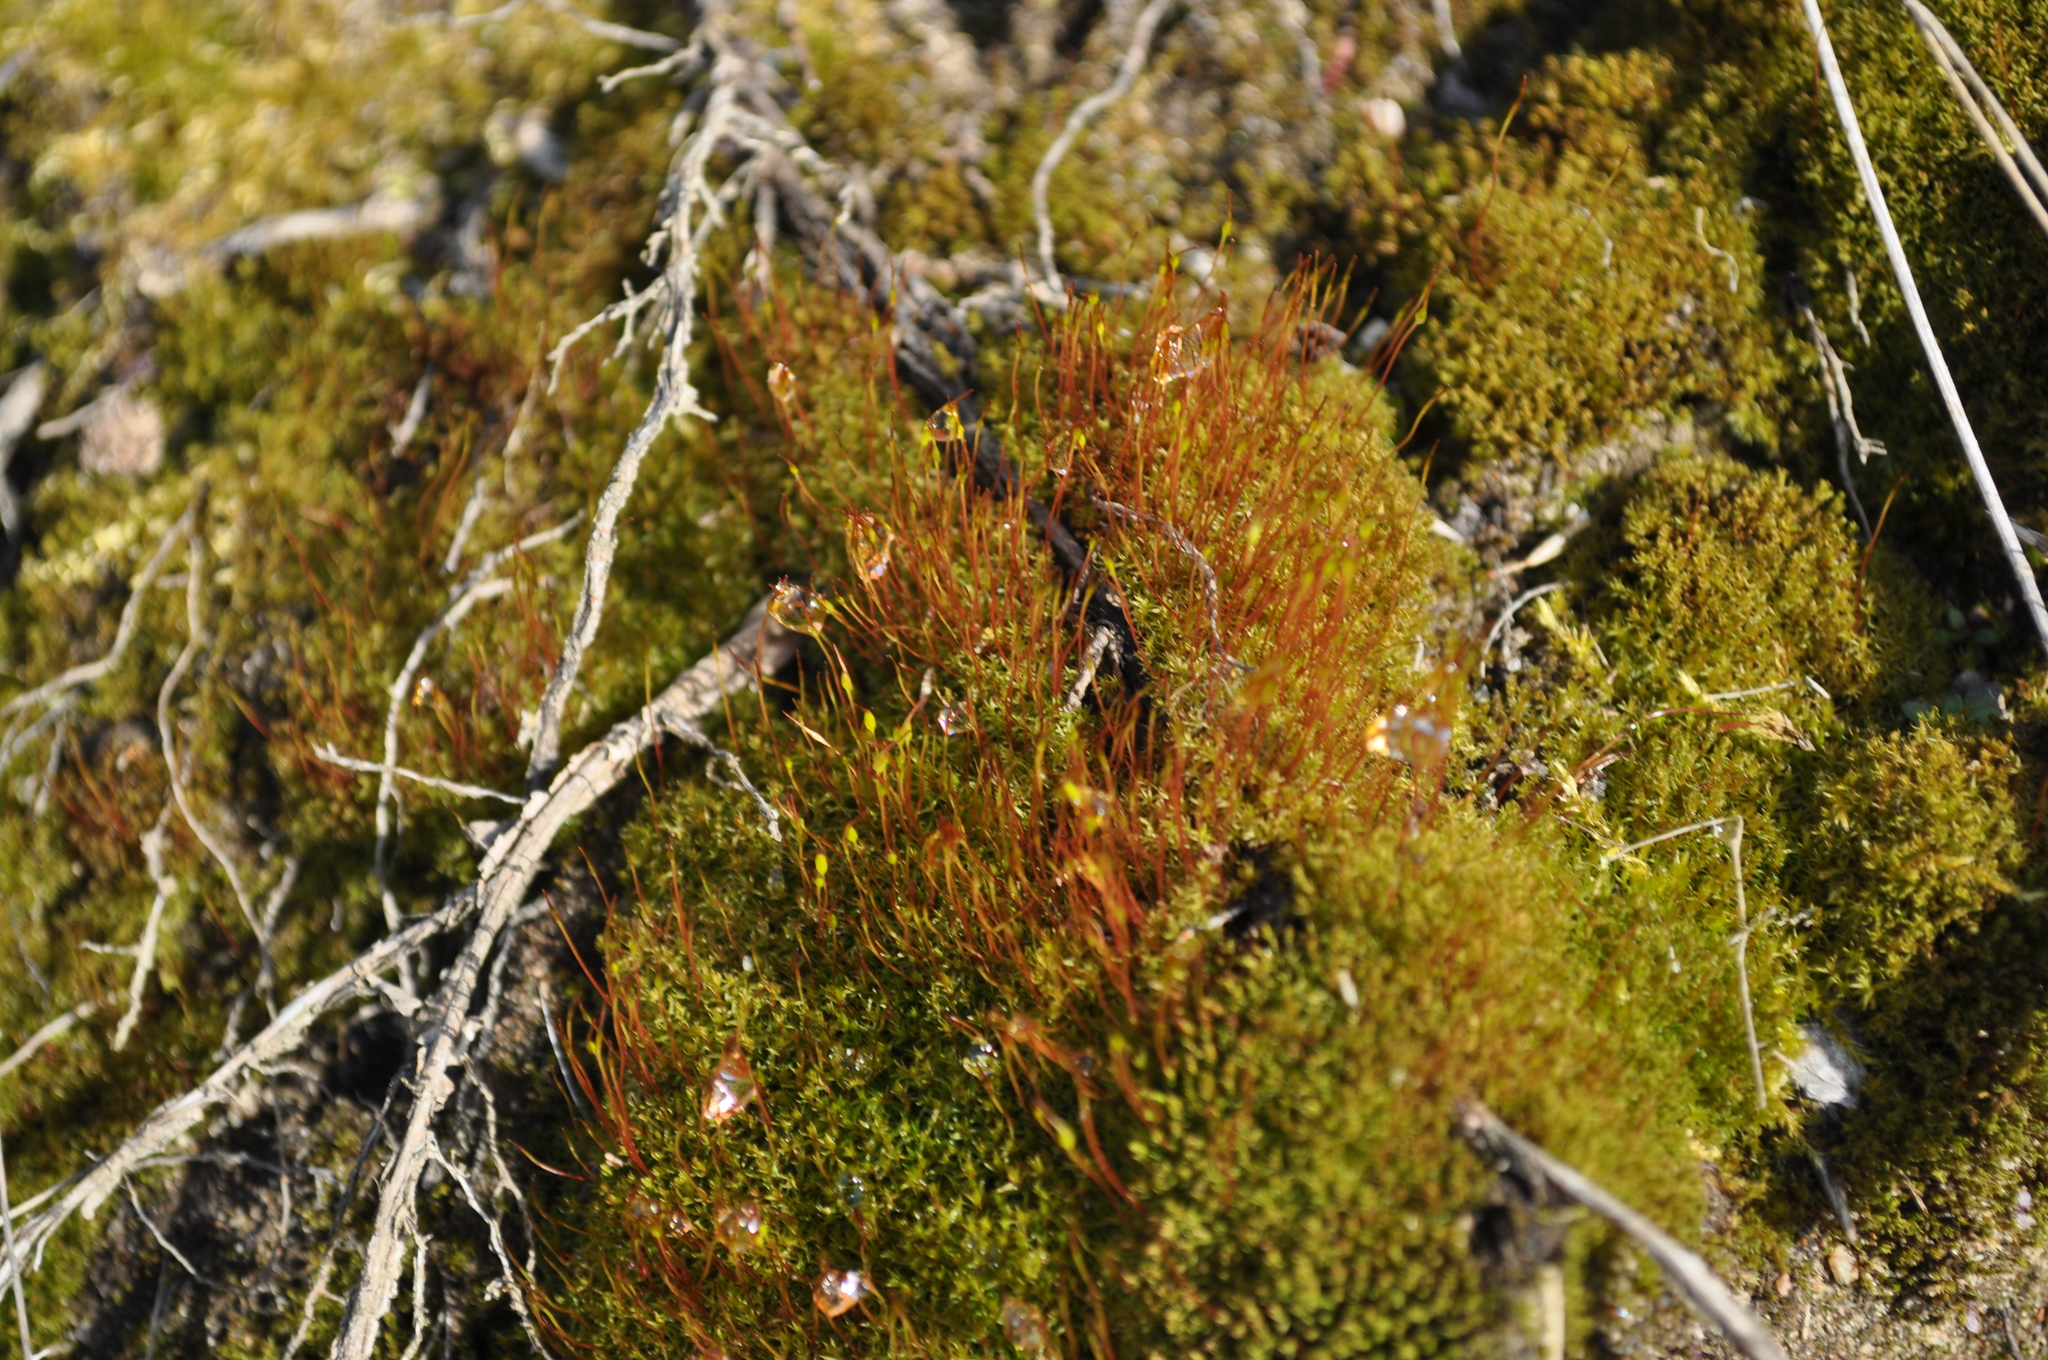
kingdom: Plantae
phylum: Bryophyta
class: Bryopsida
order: Dicranales
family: Ditrichaceae
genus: Ceratodon
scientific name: Ceratodon purpureus
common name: Redshank
